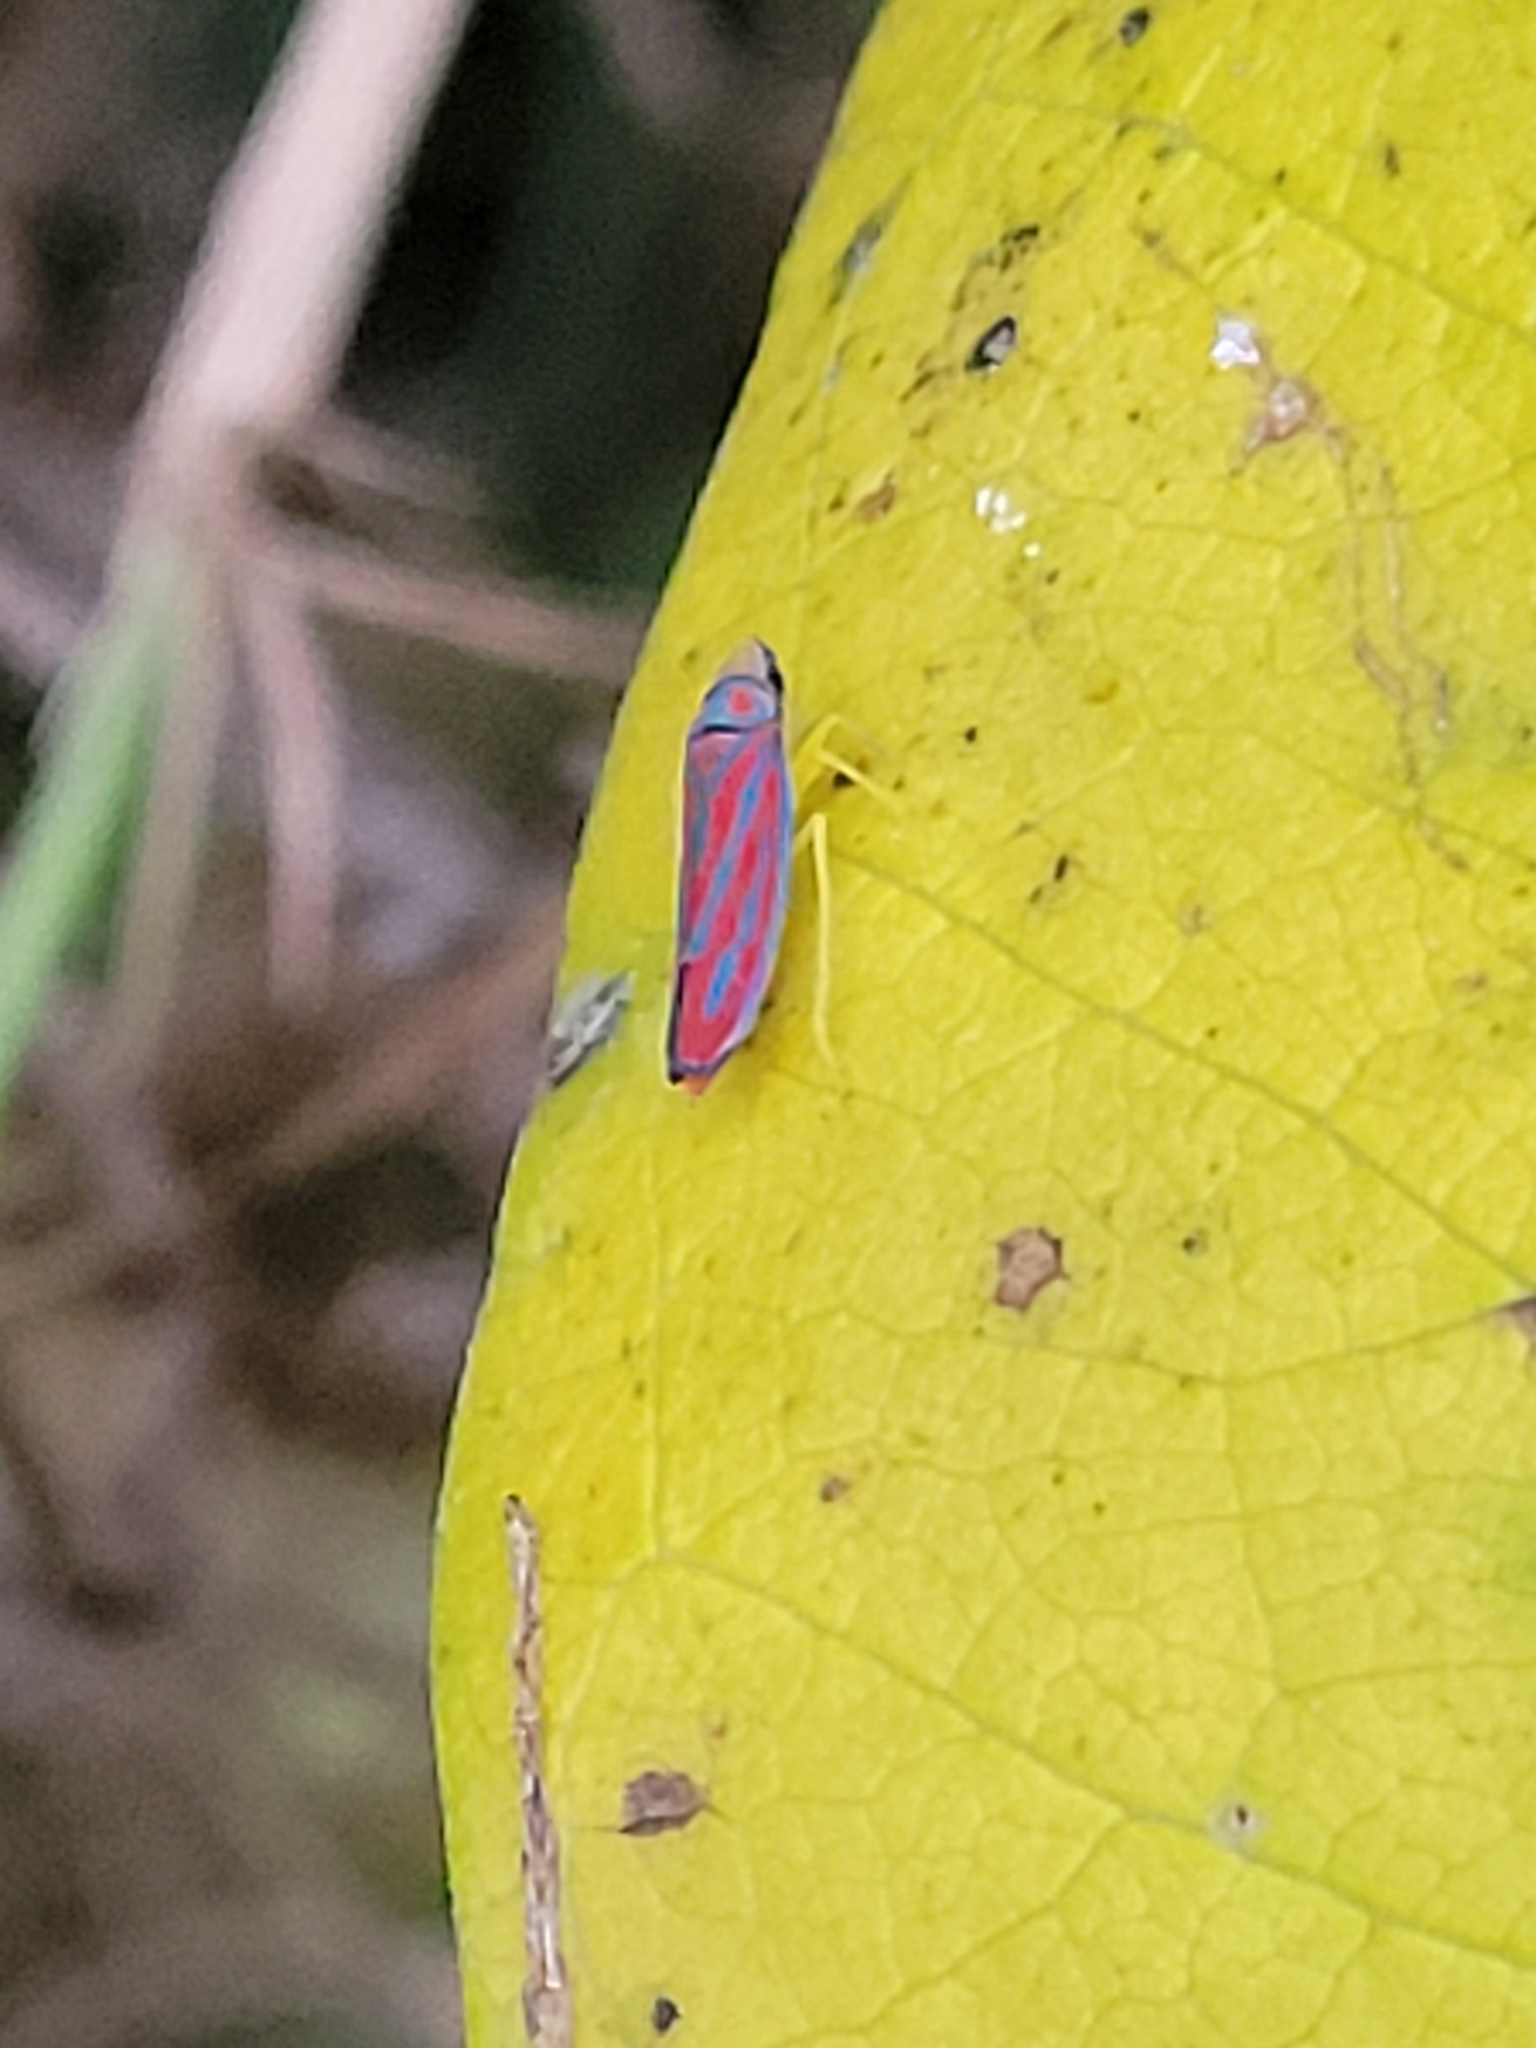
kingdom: Animalia
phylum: Arthropoda
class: Insecta
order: Hemiptera
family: Cicadellidae
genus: Graphocephala
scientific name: Graphocephala coccinea
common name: Candy-striped leafhopper
